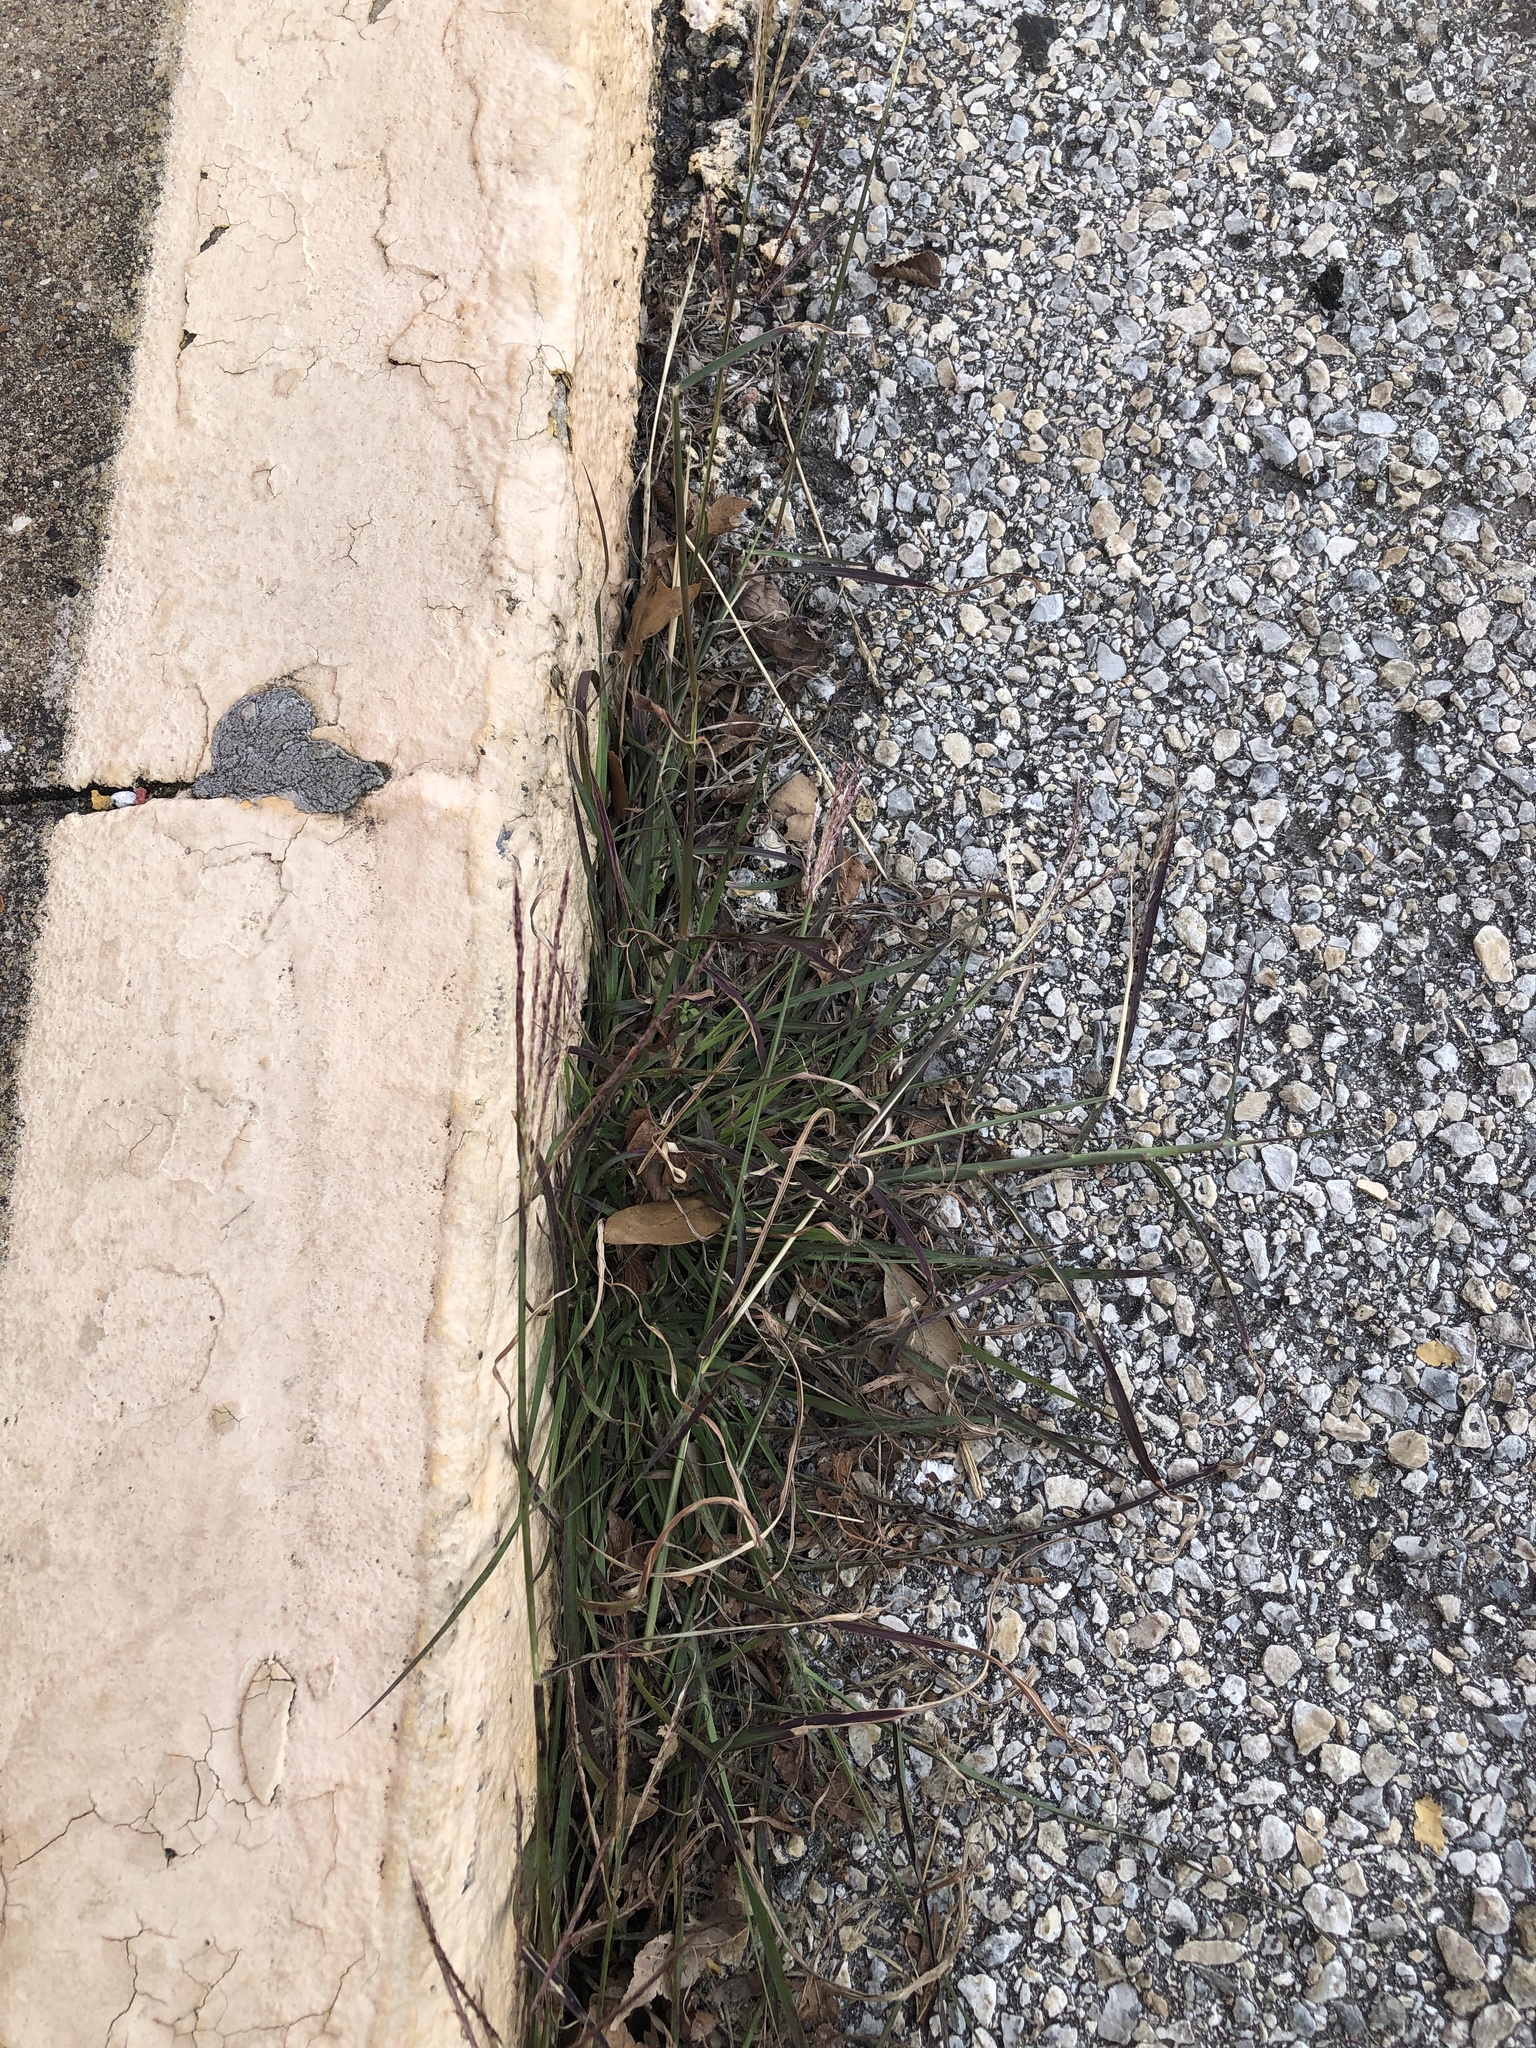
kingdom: Plantae
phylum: Tracheophyta
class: Liliopsida
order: Poales
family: Poaceae
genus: Bothriochloa
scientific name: Bothriochloa ischaemum
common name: Yellow bluestem
